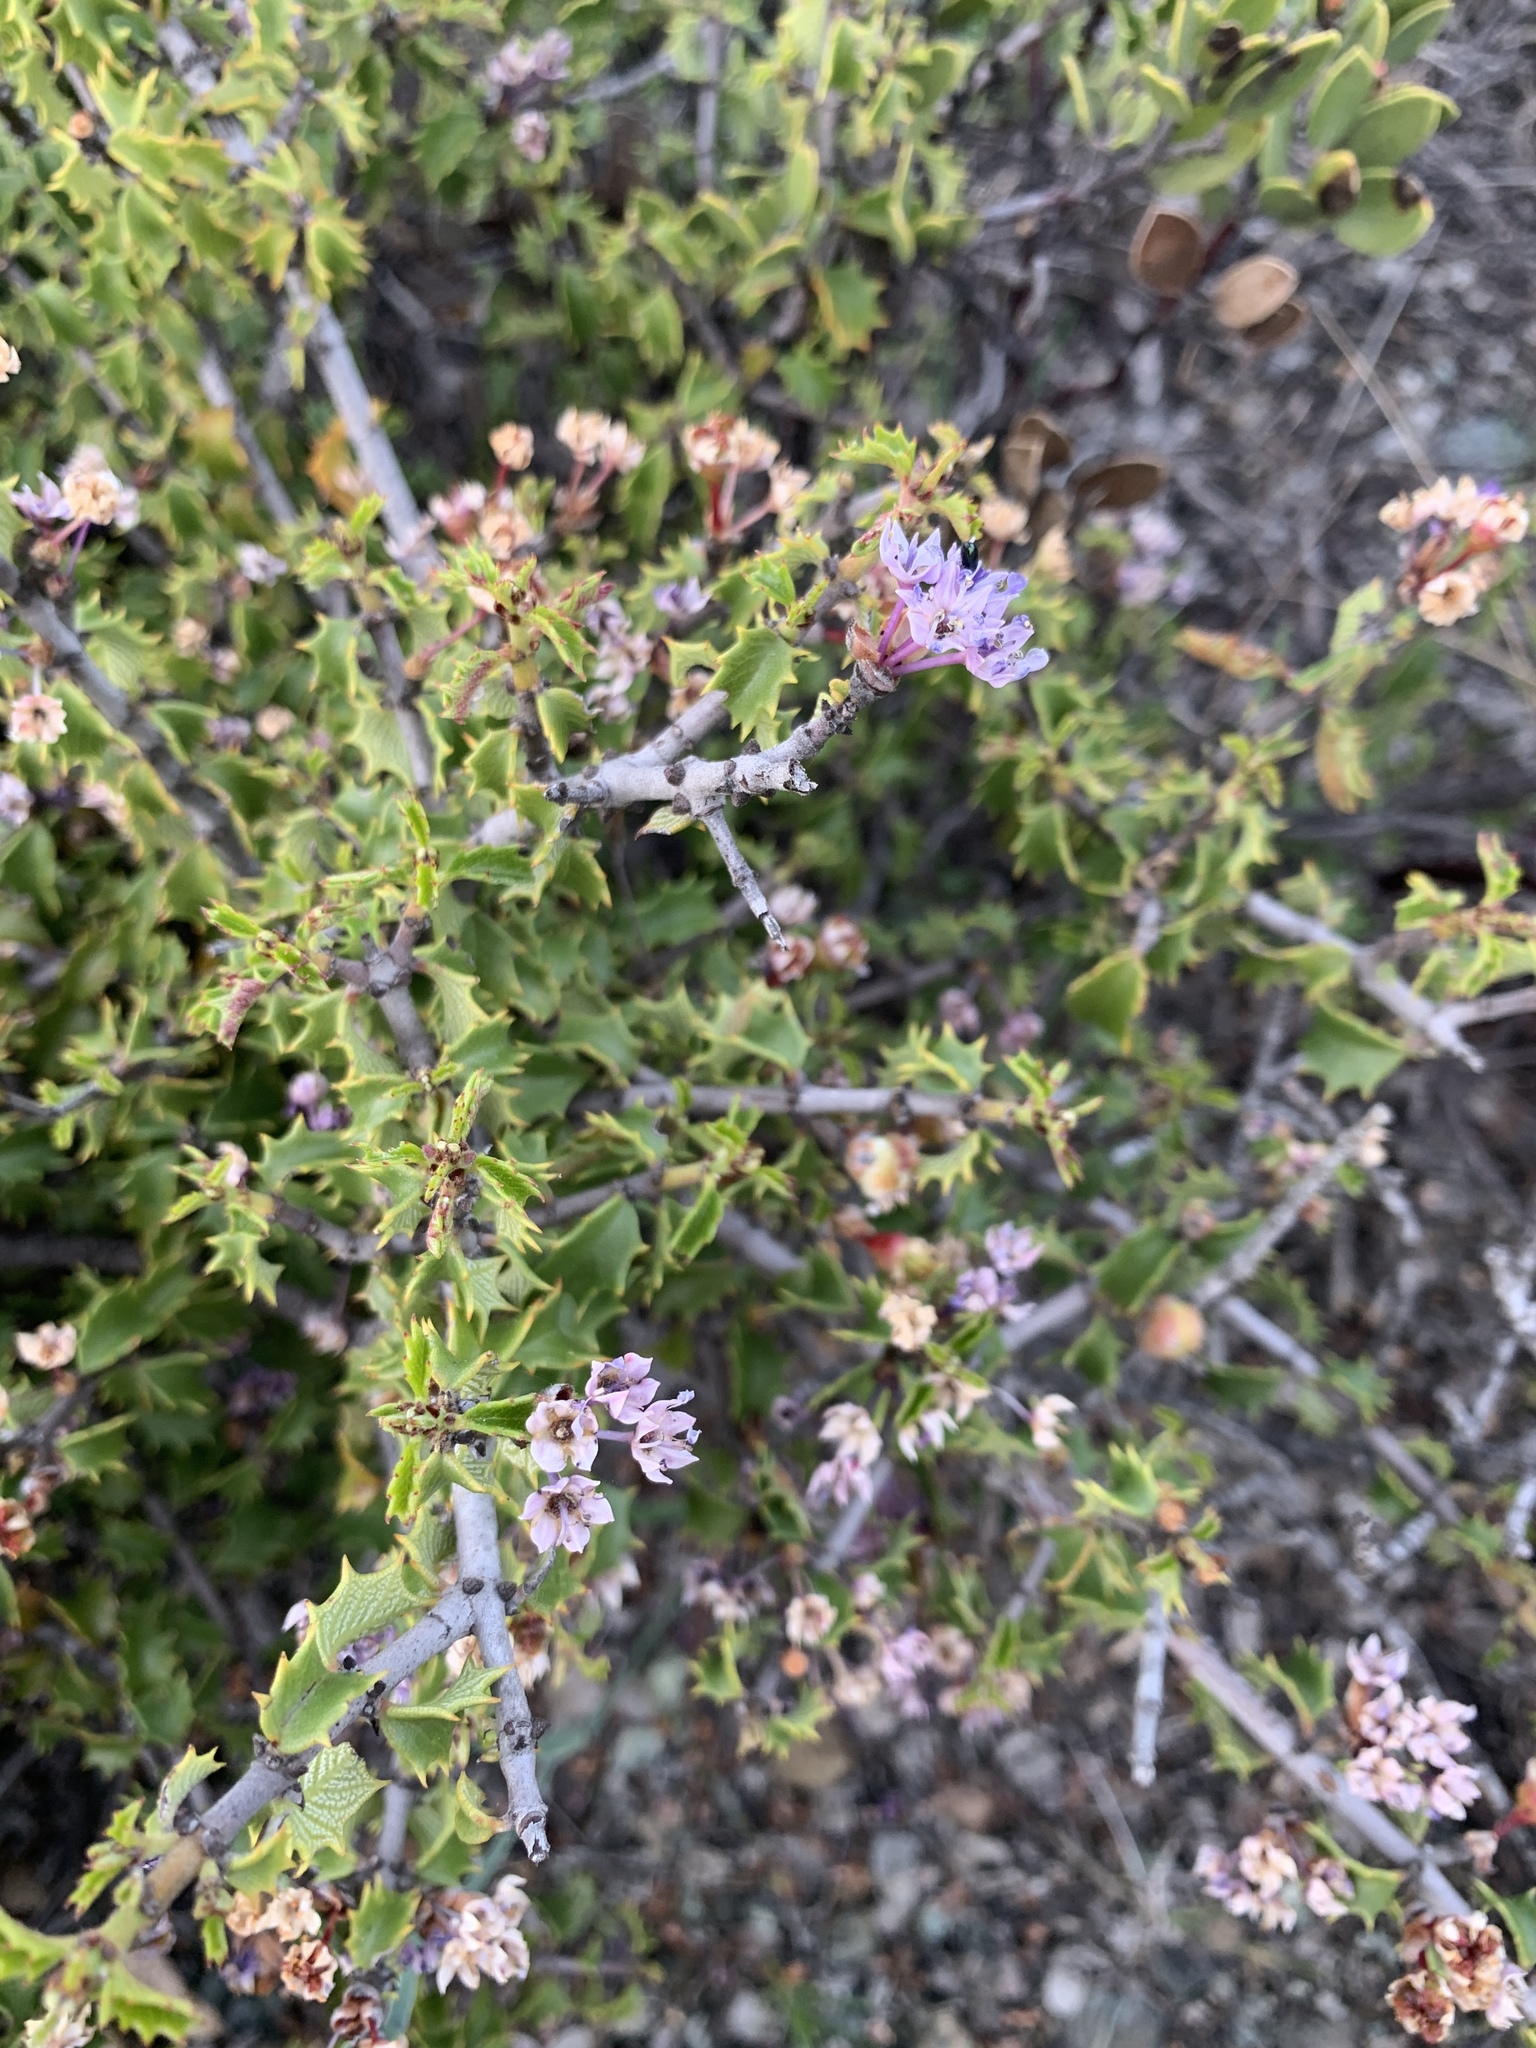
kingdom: Plantae
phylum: Tracheophyta
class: Magnoliopsida
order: Rosales
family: Rhamnaceae
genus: Ceanothus
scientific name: Ceanothus jepsonii
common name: Muskbrush
